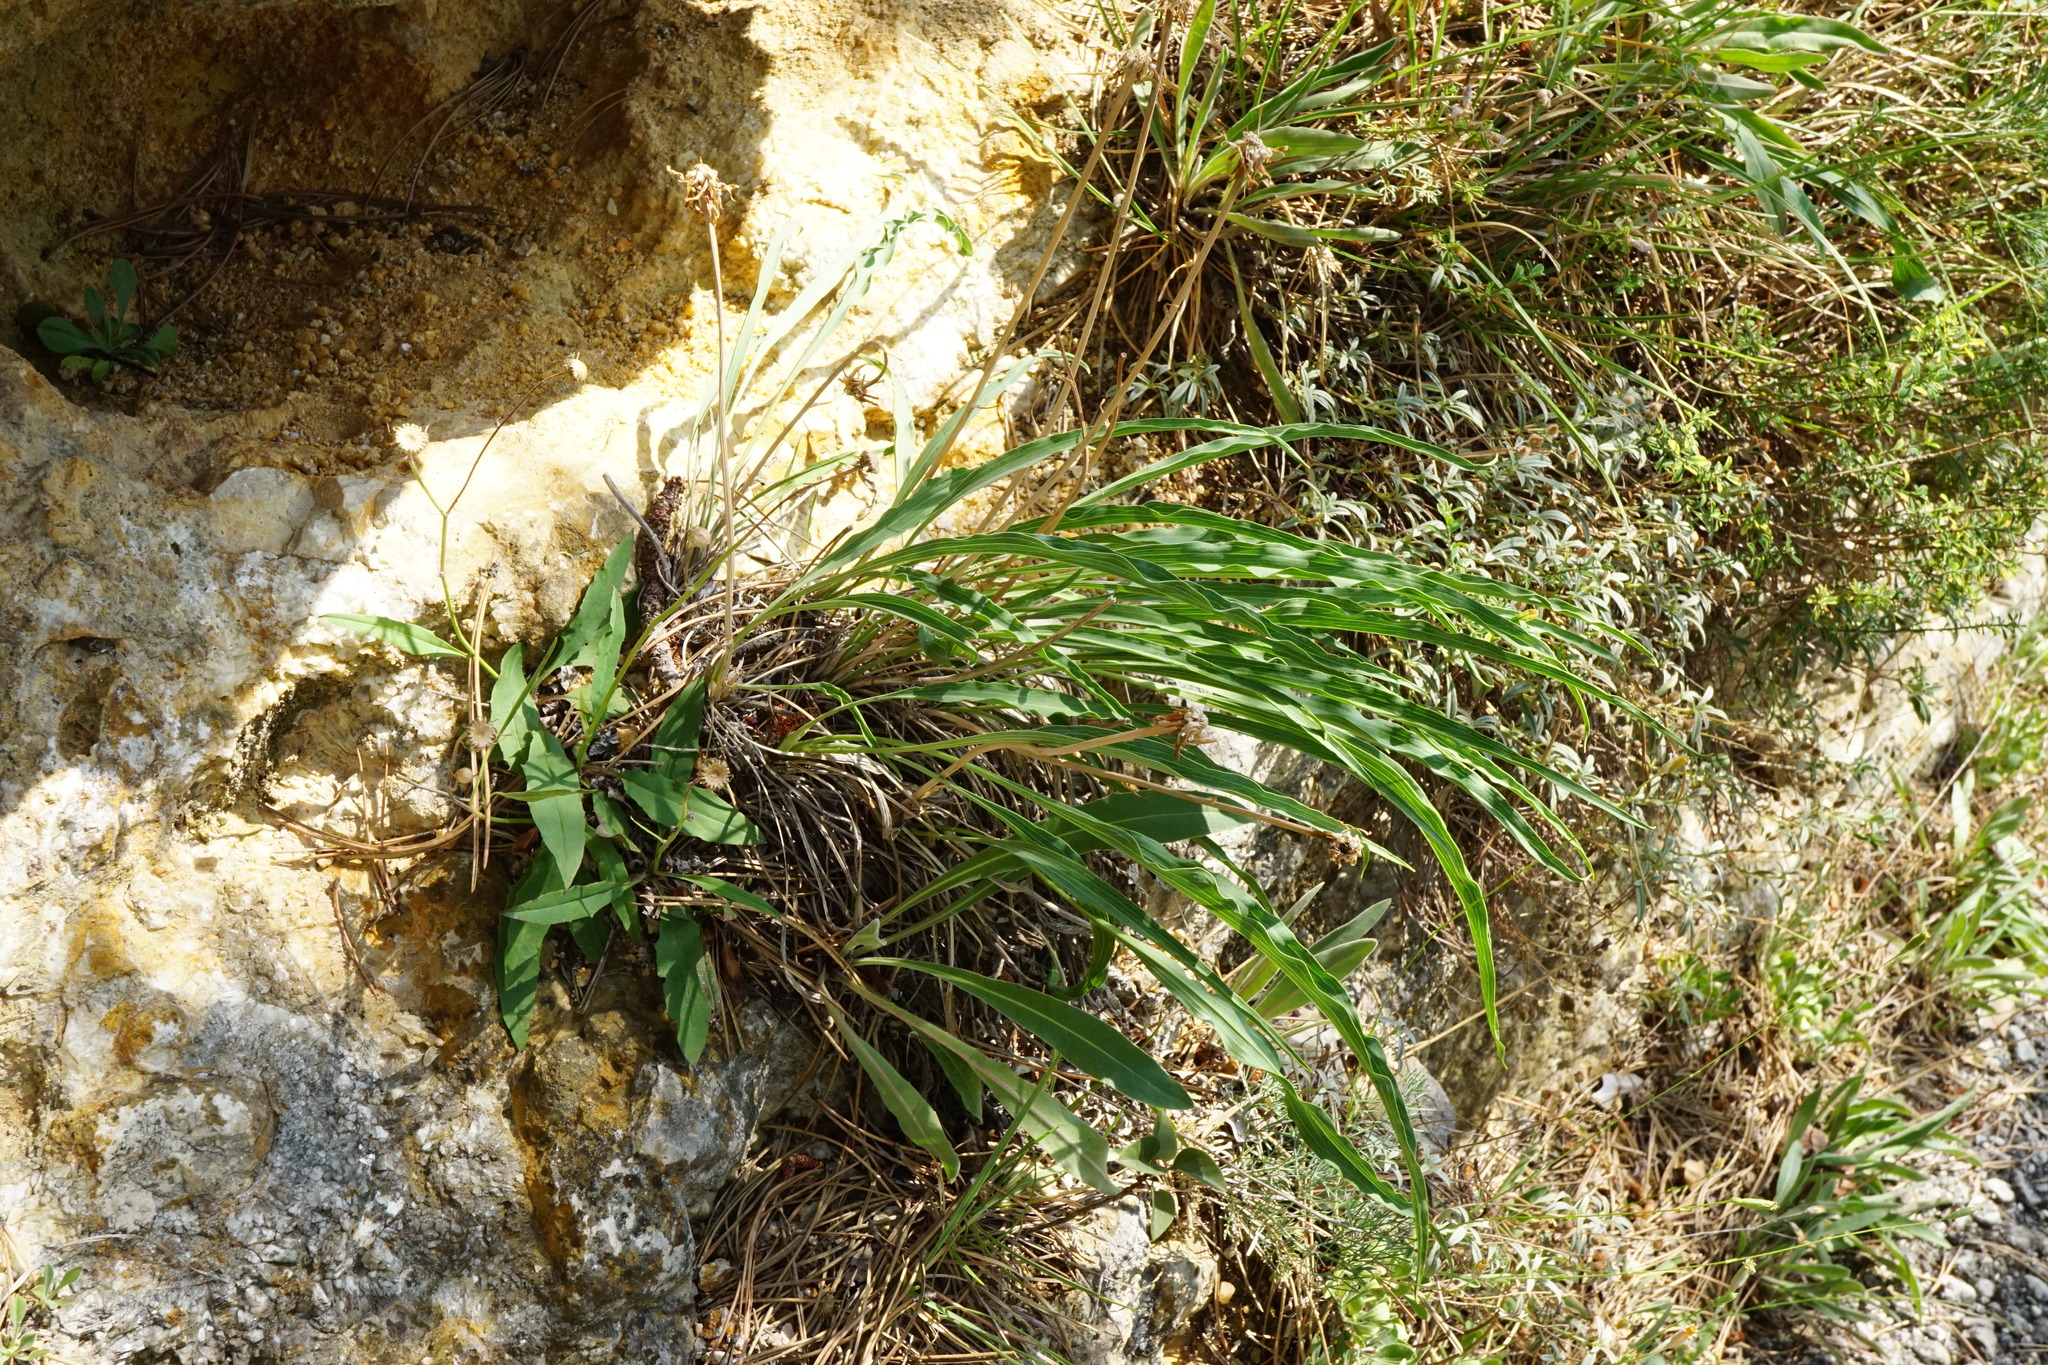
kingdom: Plantae
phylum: Tracheophyta
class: Magnoliopsida
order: Asterales
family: Asteraceae
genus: Takhtajaniantha
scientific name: Takhtajaniantha austriaca
